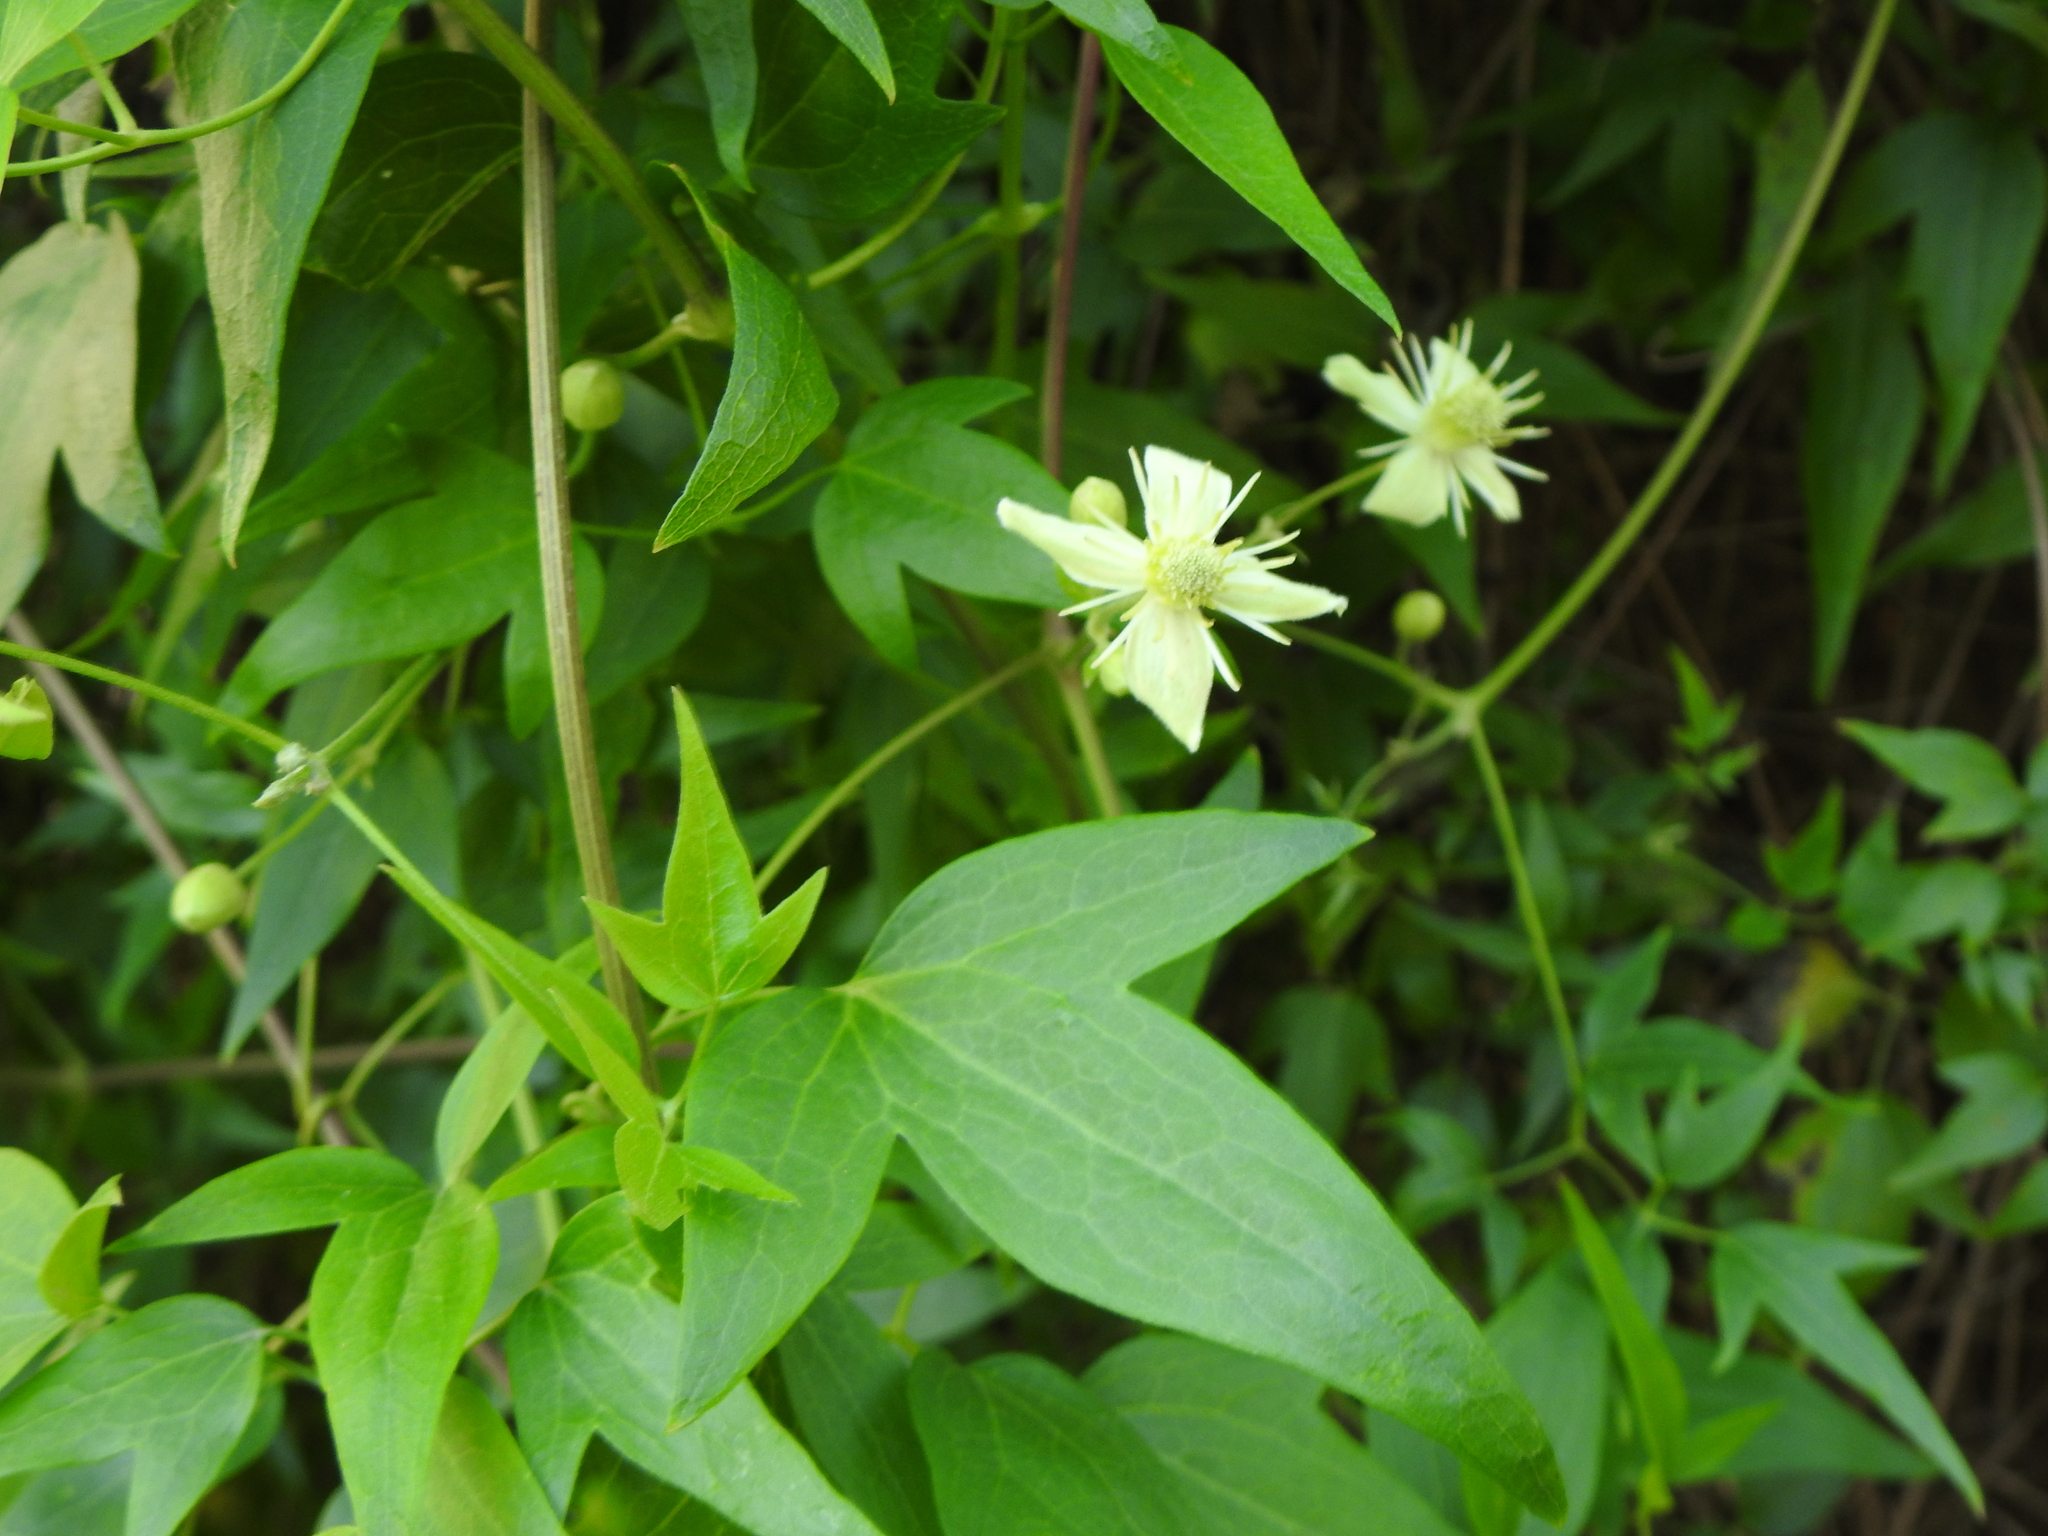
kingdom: Plantae
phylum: Tracheophyta
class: Magnoliopsida
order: Ranunculales
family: Ranunculaceae
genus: Clematis
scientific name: Clematis montevidensis
